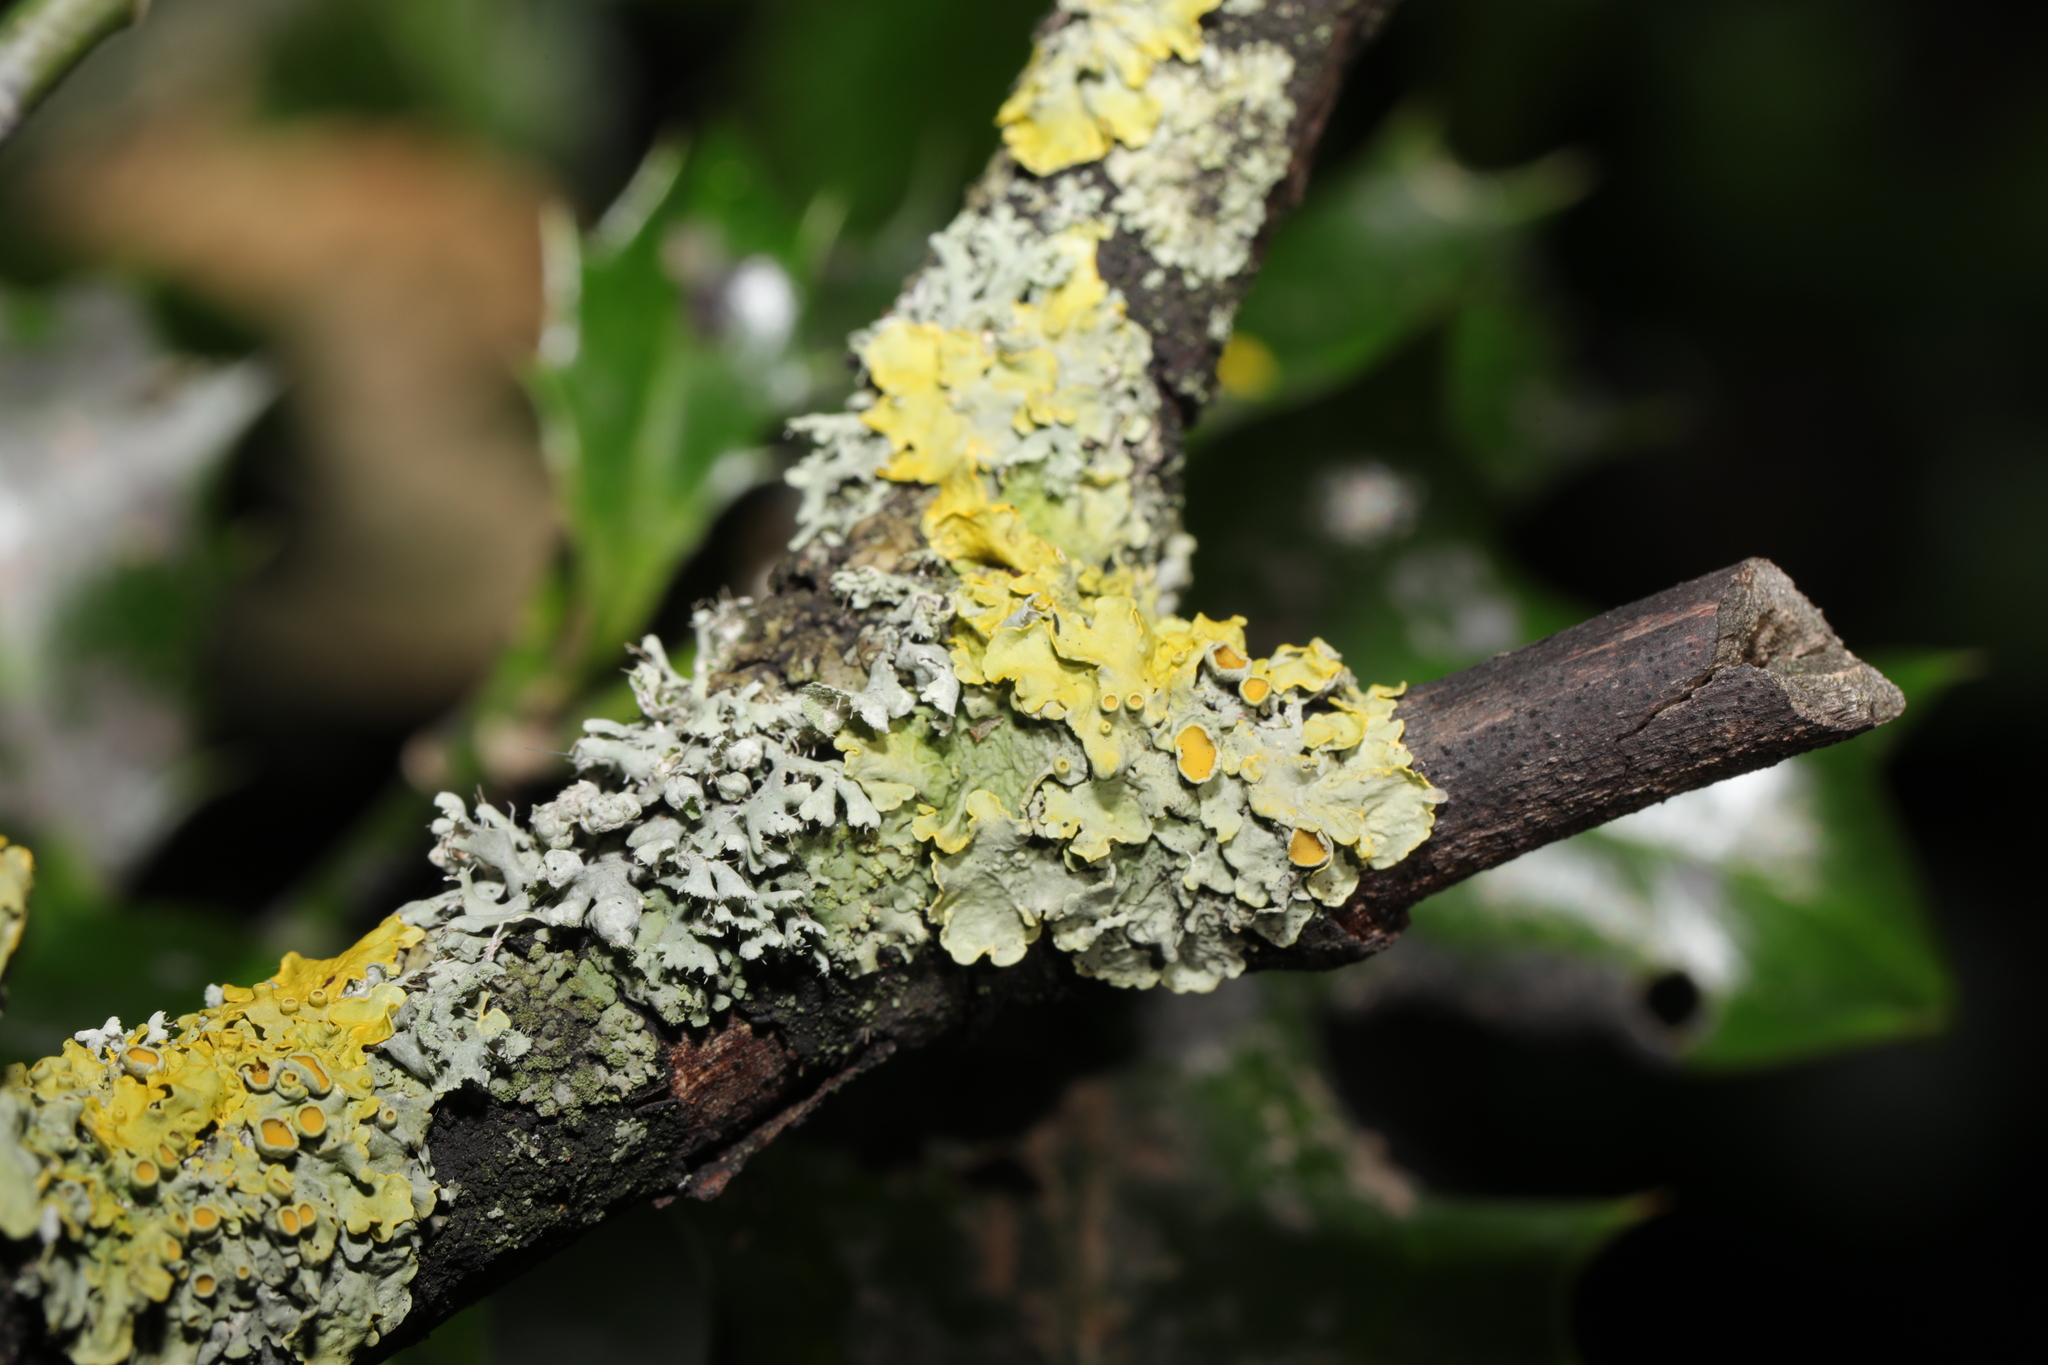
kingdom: Fungi
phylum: Ascomycota
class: Lecanoromycetes
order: Teloschistales
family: Teloschistaceae
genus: Xanthoria
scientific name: Xanthoria parietina
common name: Common orange lichen
